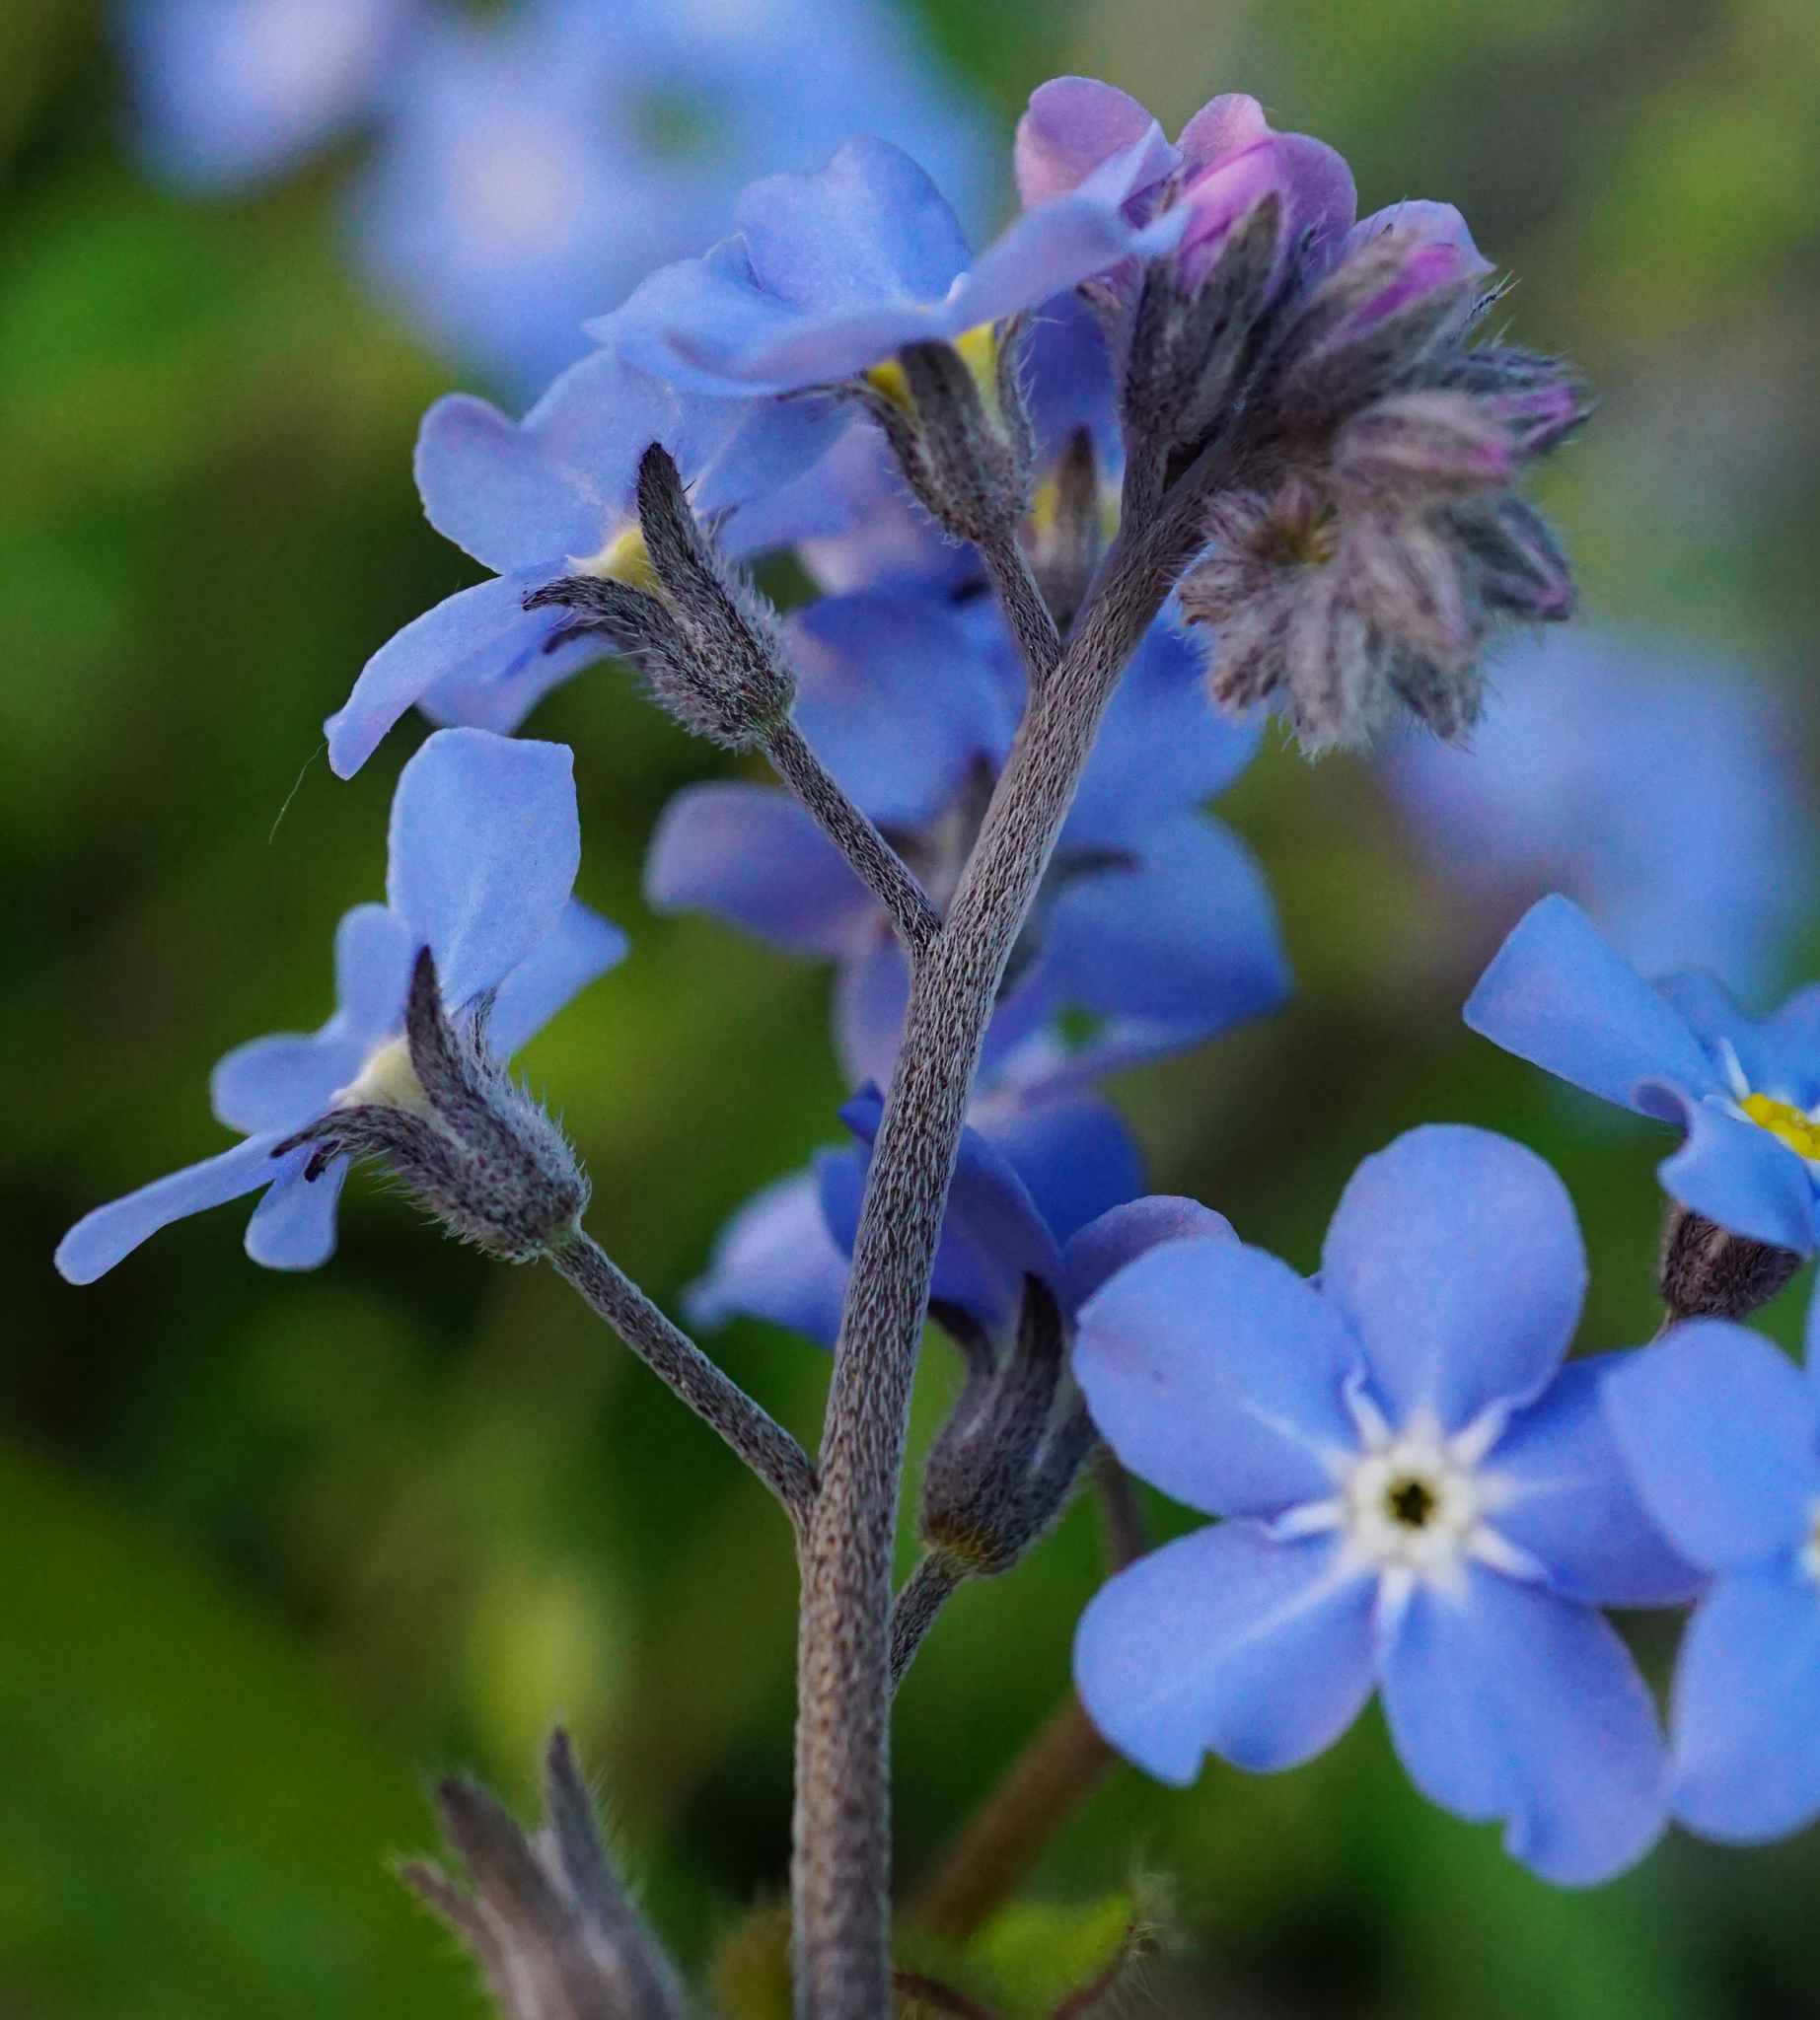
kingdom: Plantae
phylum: Tracheophyta
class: Magnoliopsida
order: Boraginales
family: Boraginaceae
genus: Myosotis
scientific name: Myosotis sylvatica
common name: Wood forget-me-not
